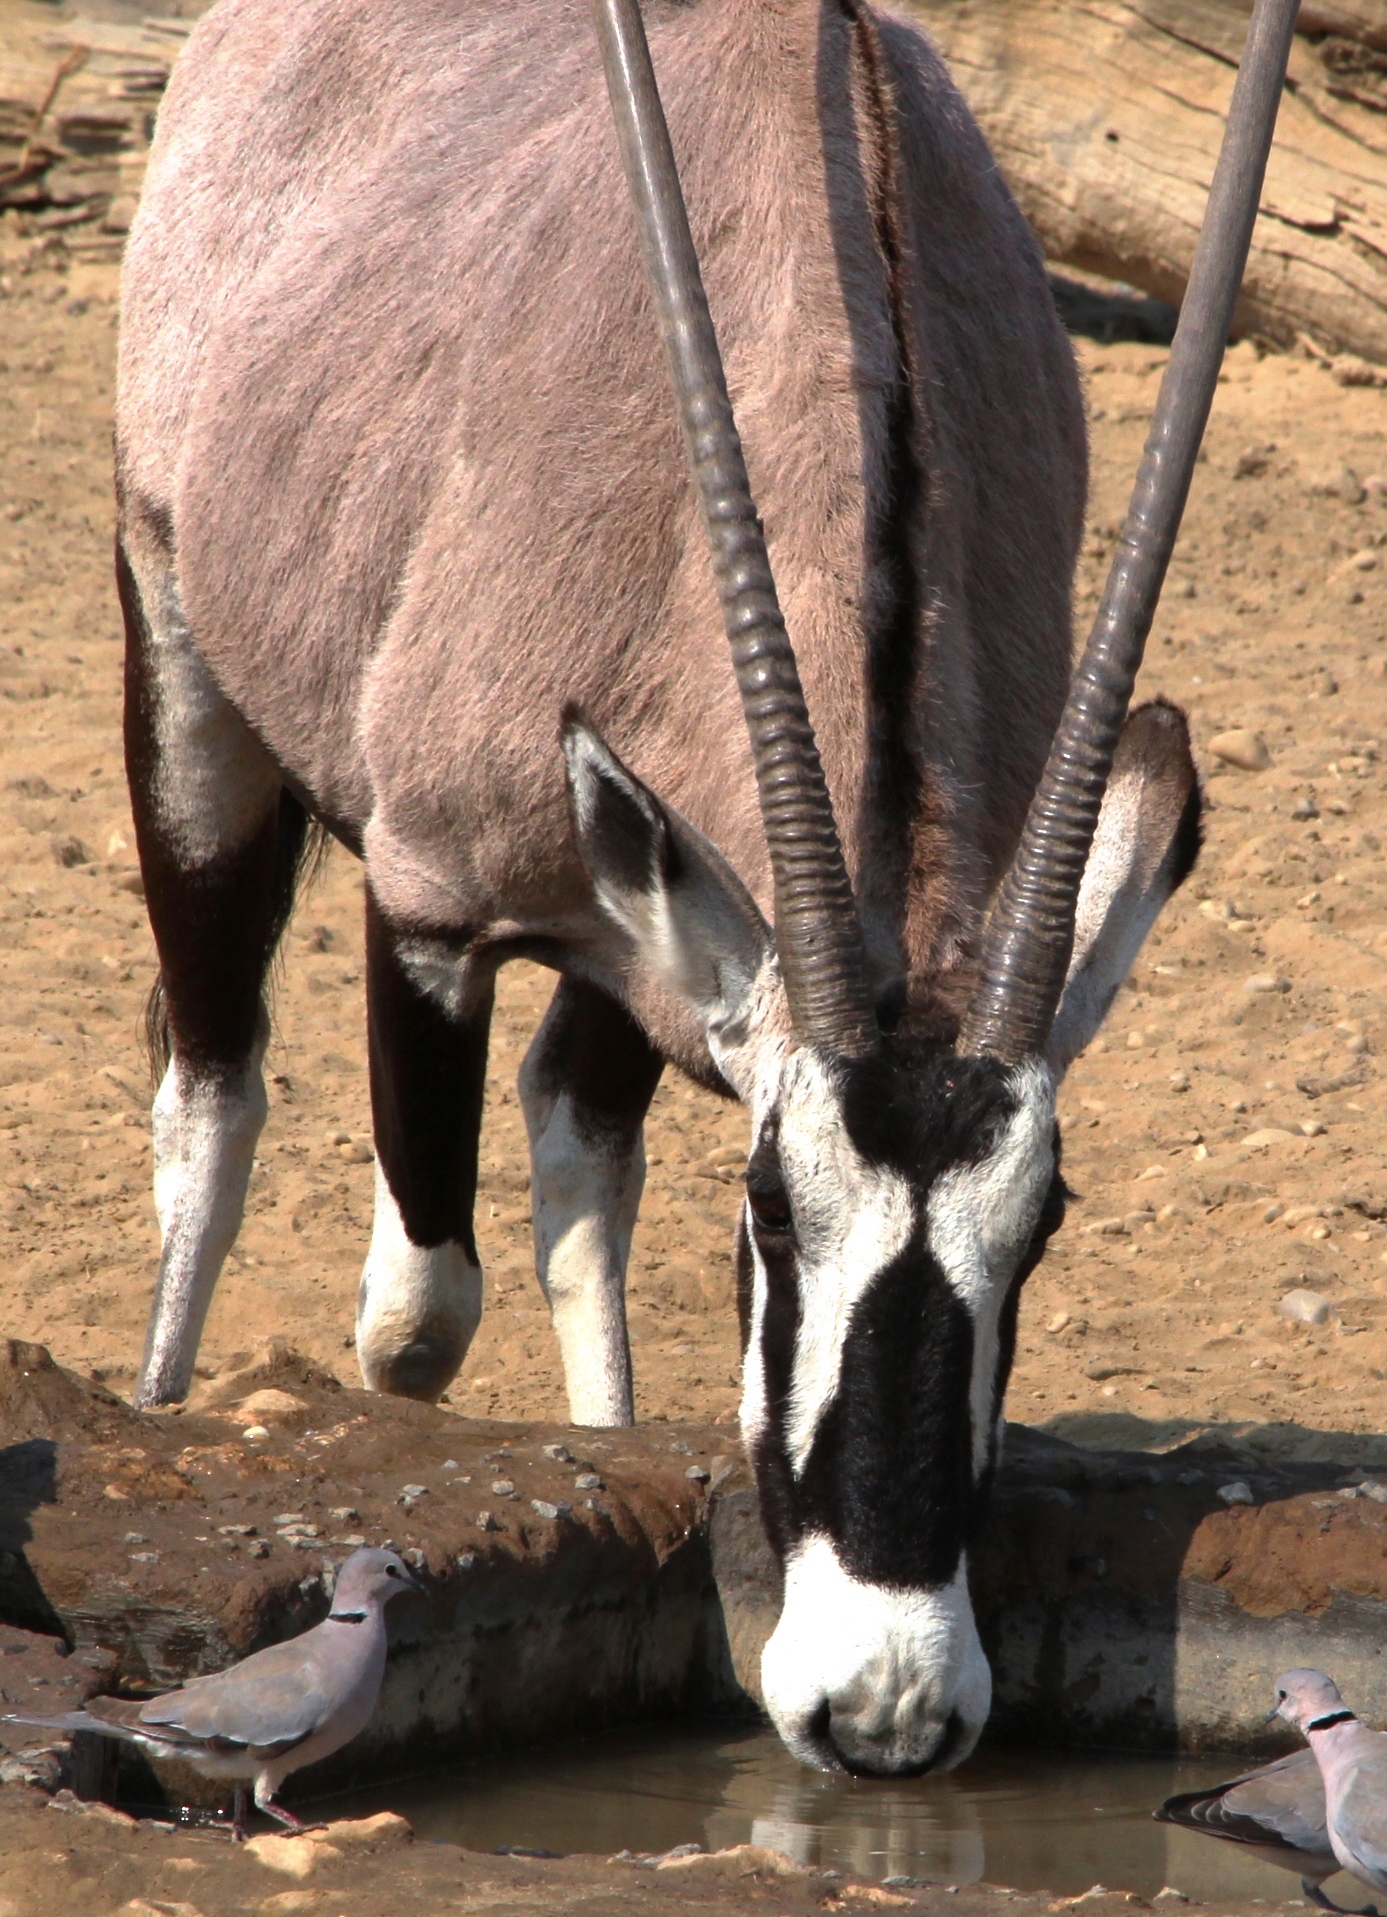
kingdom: Animalia
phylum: Chordata
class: Mammalia
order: Artiodactyla
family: Bovidae
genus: Oryx
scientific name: Oryx gazella
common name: Gemsbok
